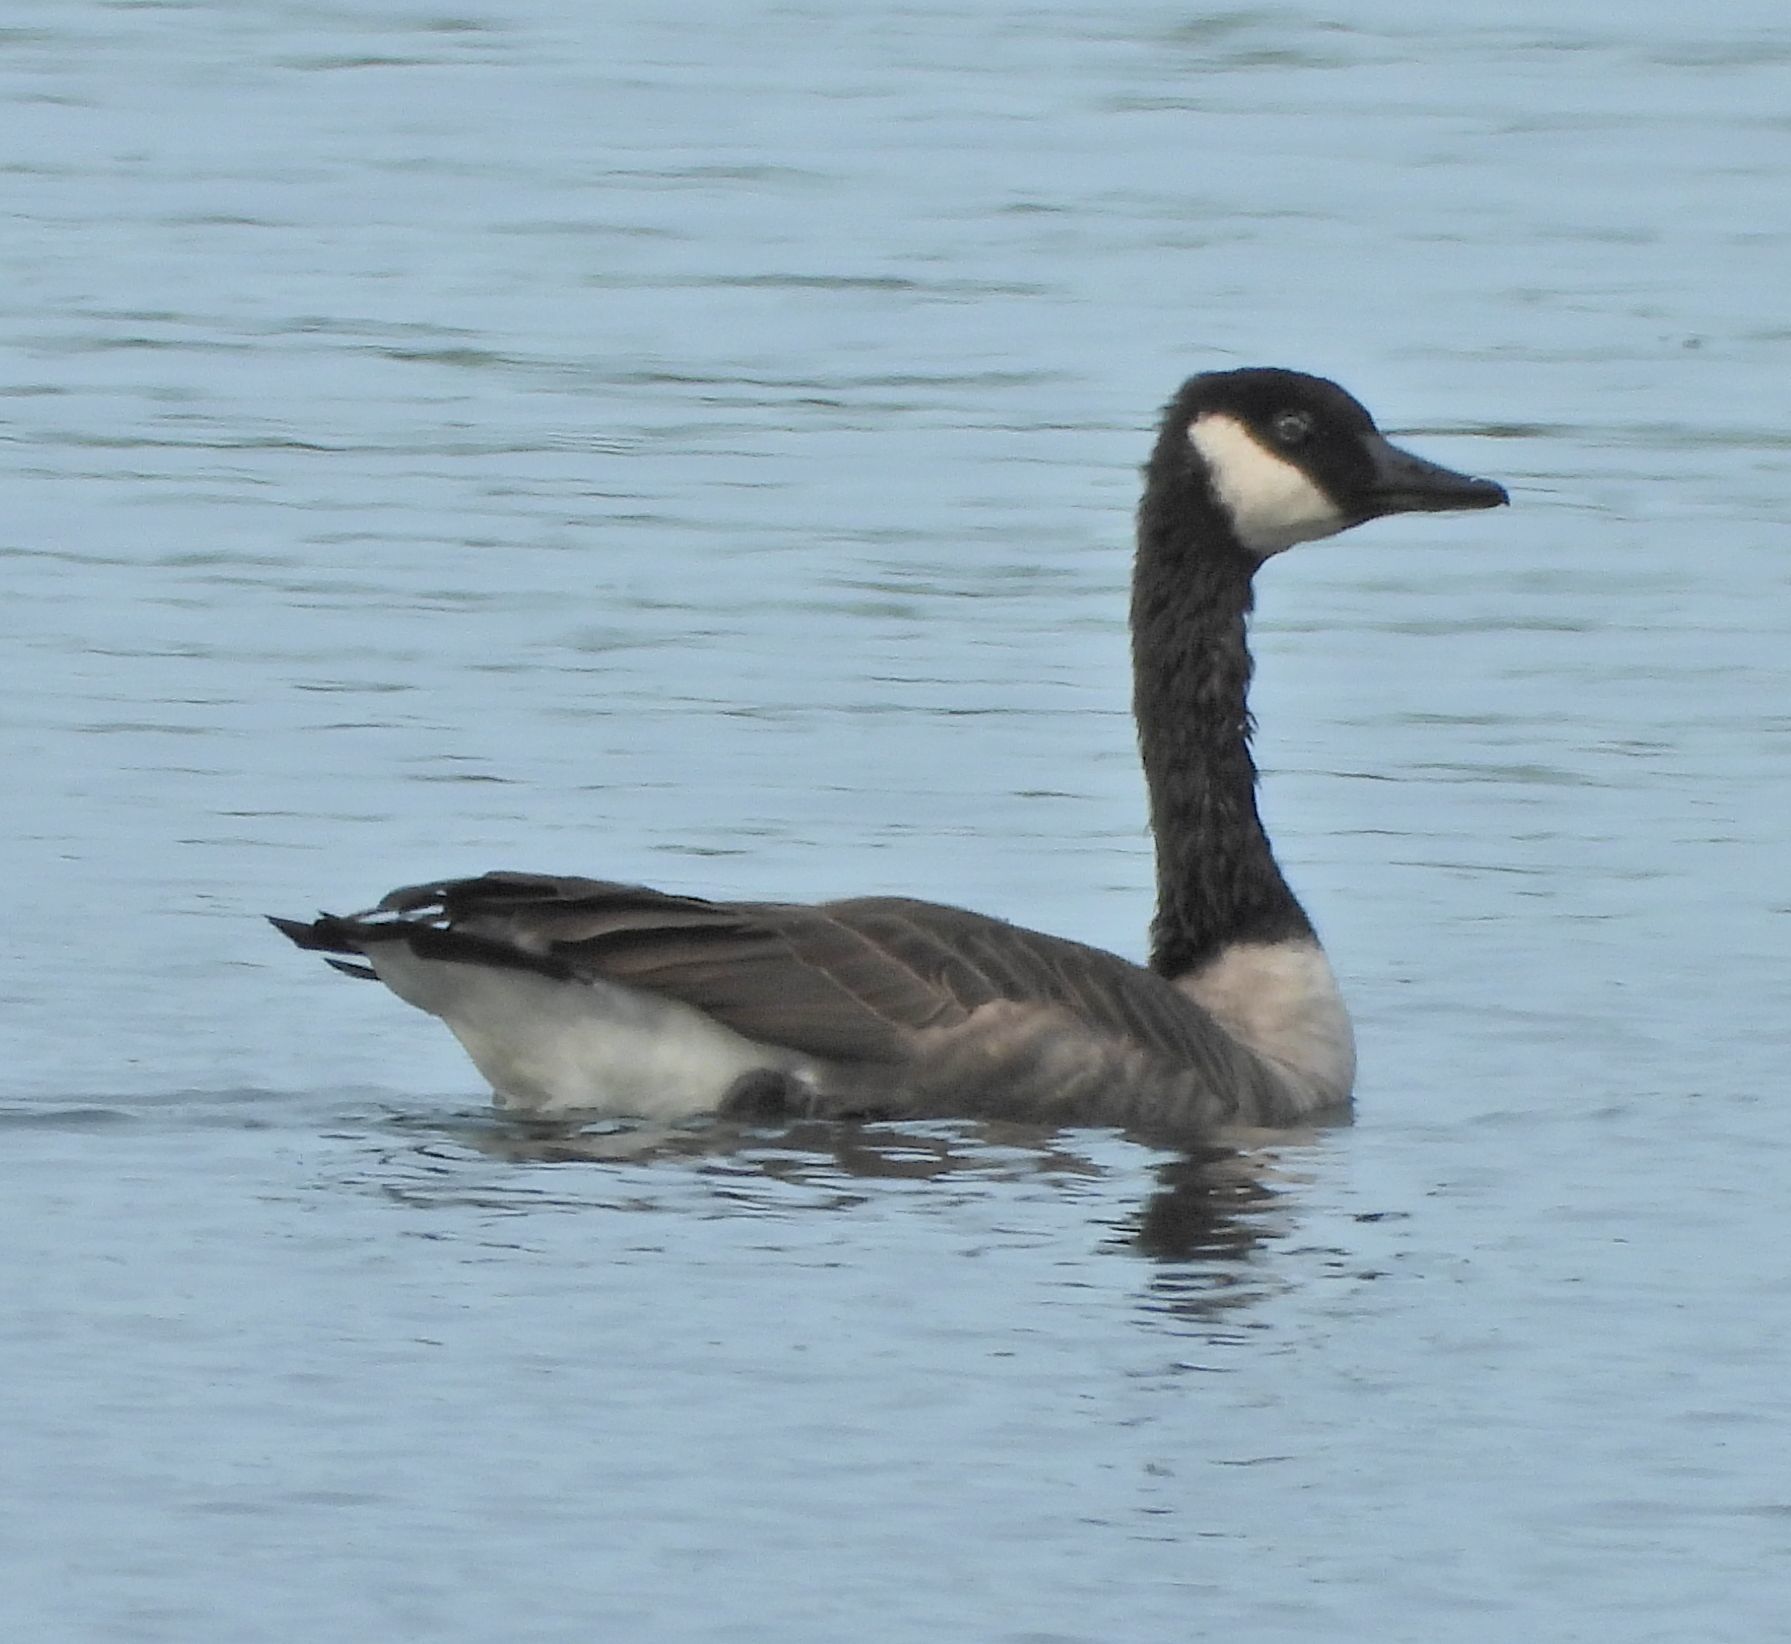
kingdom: Animalia
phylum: Chordata
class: Aves
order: Anseriformes
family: Anatidae
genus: Branta
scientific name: Branta canadensis
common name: Canada goose
